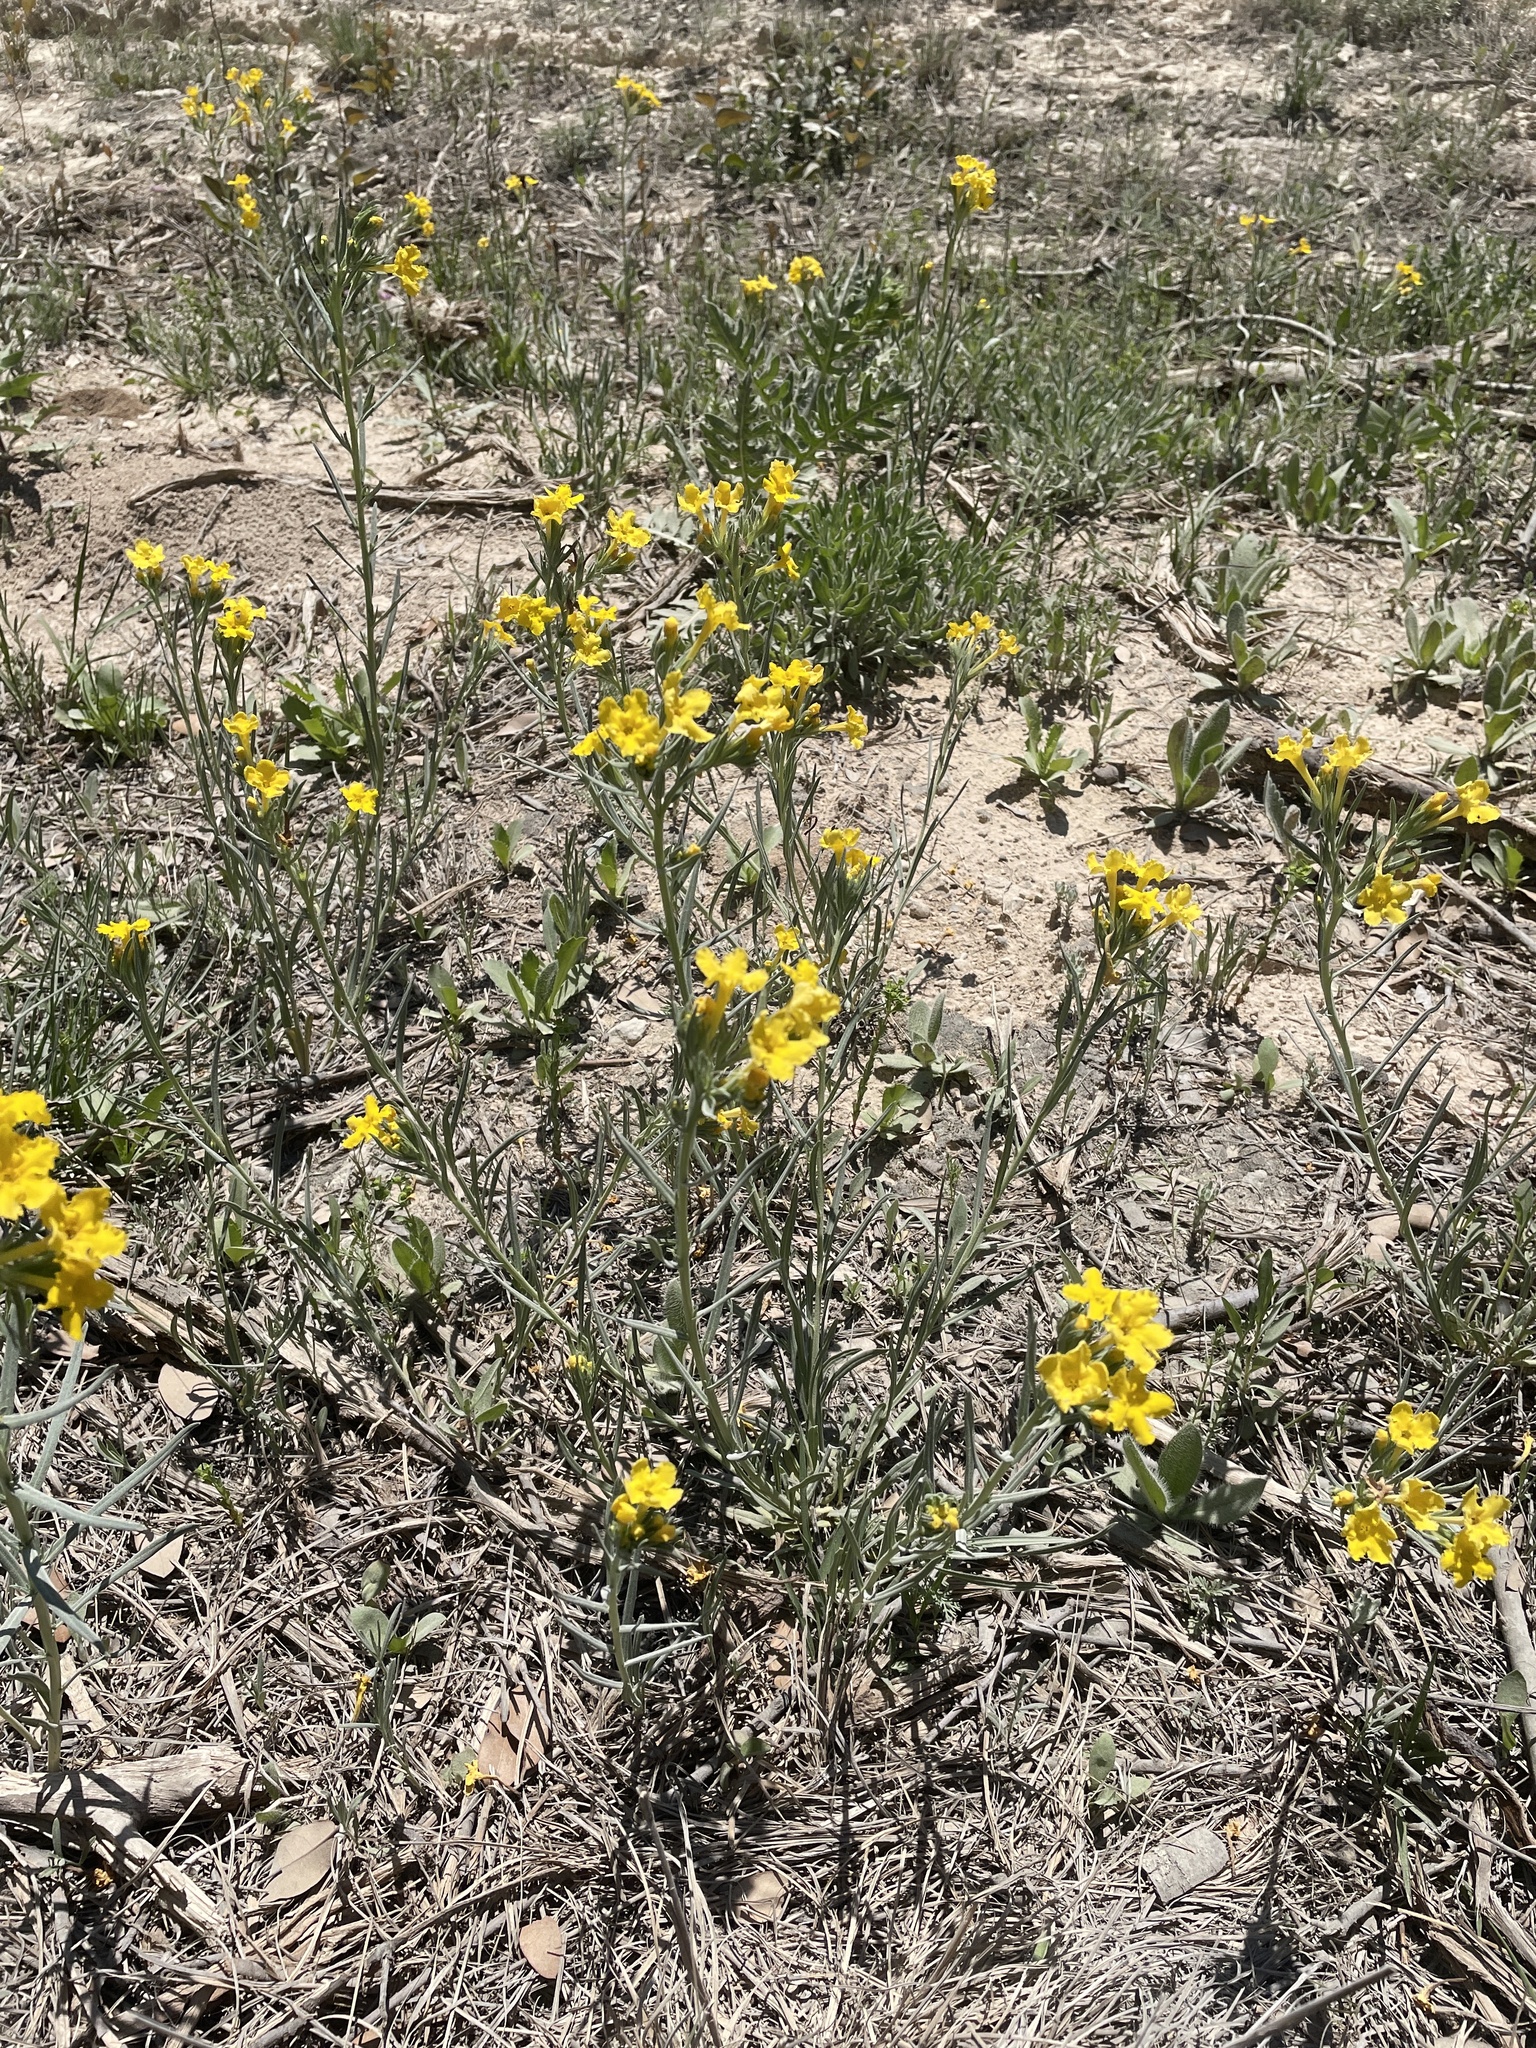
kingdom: Plantae
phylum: Tracheophyta
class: Magnoliopsida
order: Boraginales
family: Boraginaceae
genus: Lithospermum
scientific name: Lithospermum incisum
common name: Fringed gromwell
